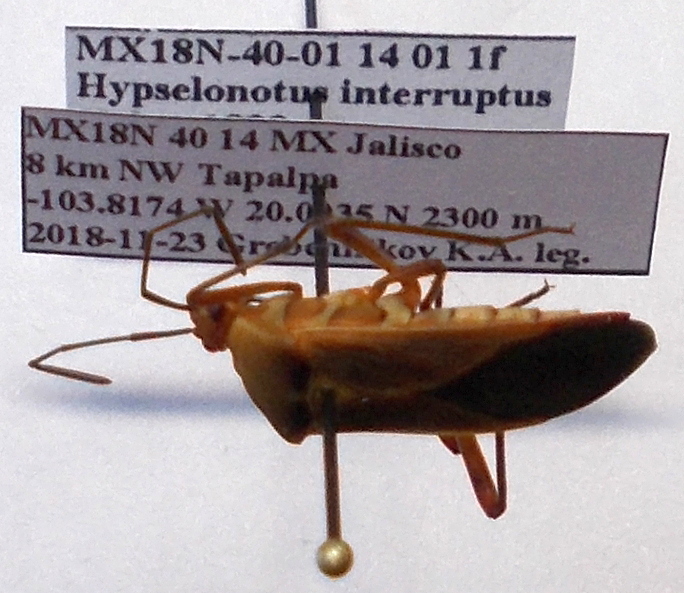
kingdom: Animalia
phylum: Arthropoda
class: Insecta
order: Hemiptera
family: Coreidae
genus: Hypselonotus
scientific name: Hypselonotus interruptus
